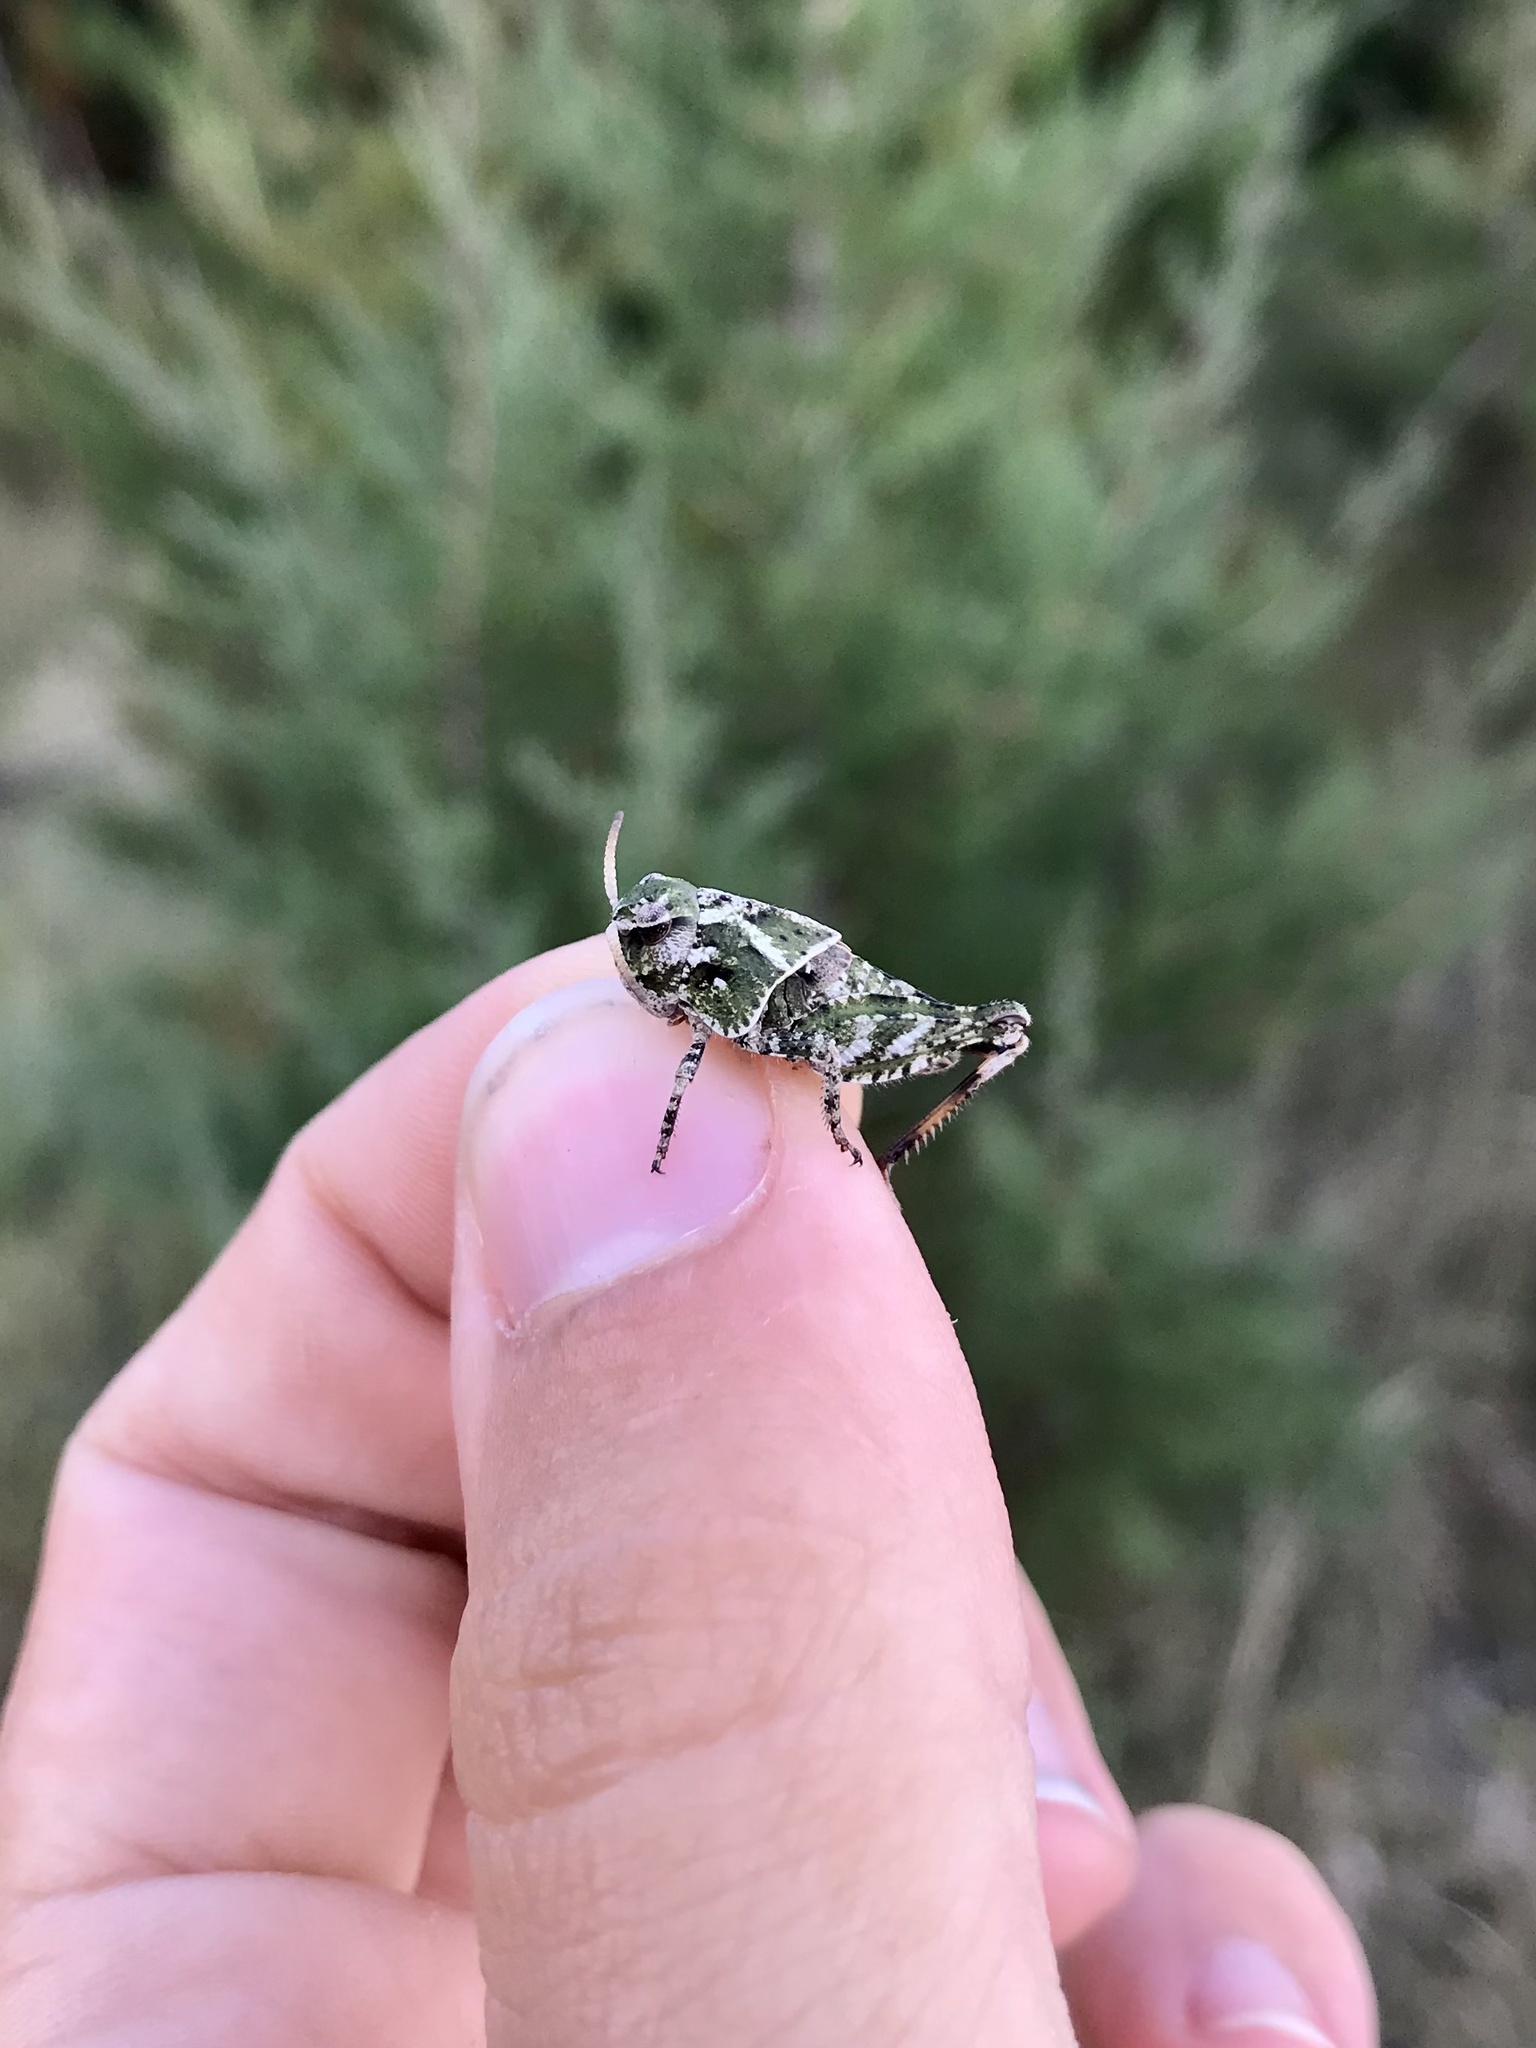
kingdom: Animalia
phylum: Arthropoda
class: Insecta
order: Orthoptera
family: Acrididae
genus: Pardalophora
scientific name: Pardalophora apiculata
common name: Coral-winged locust
